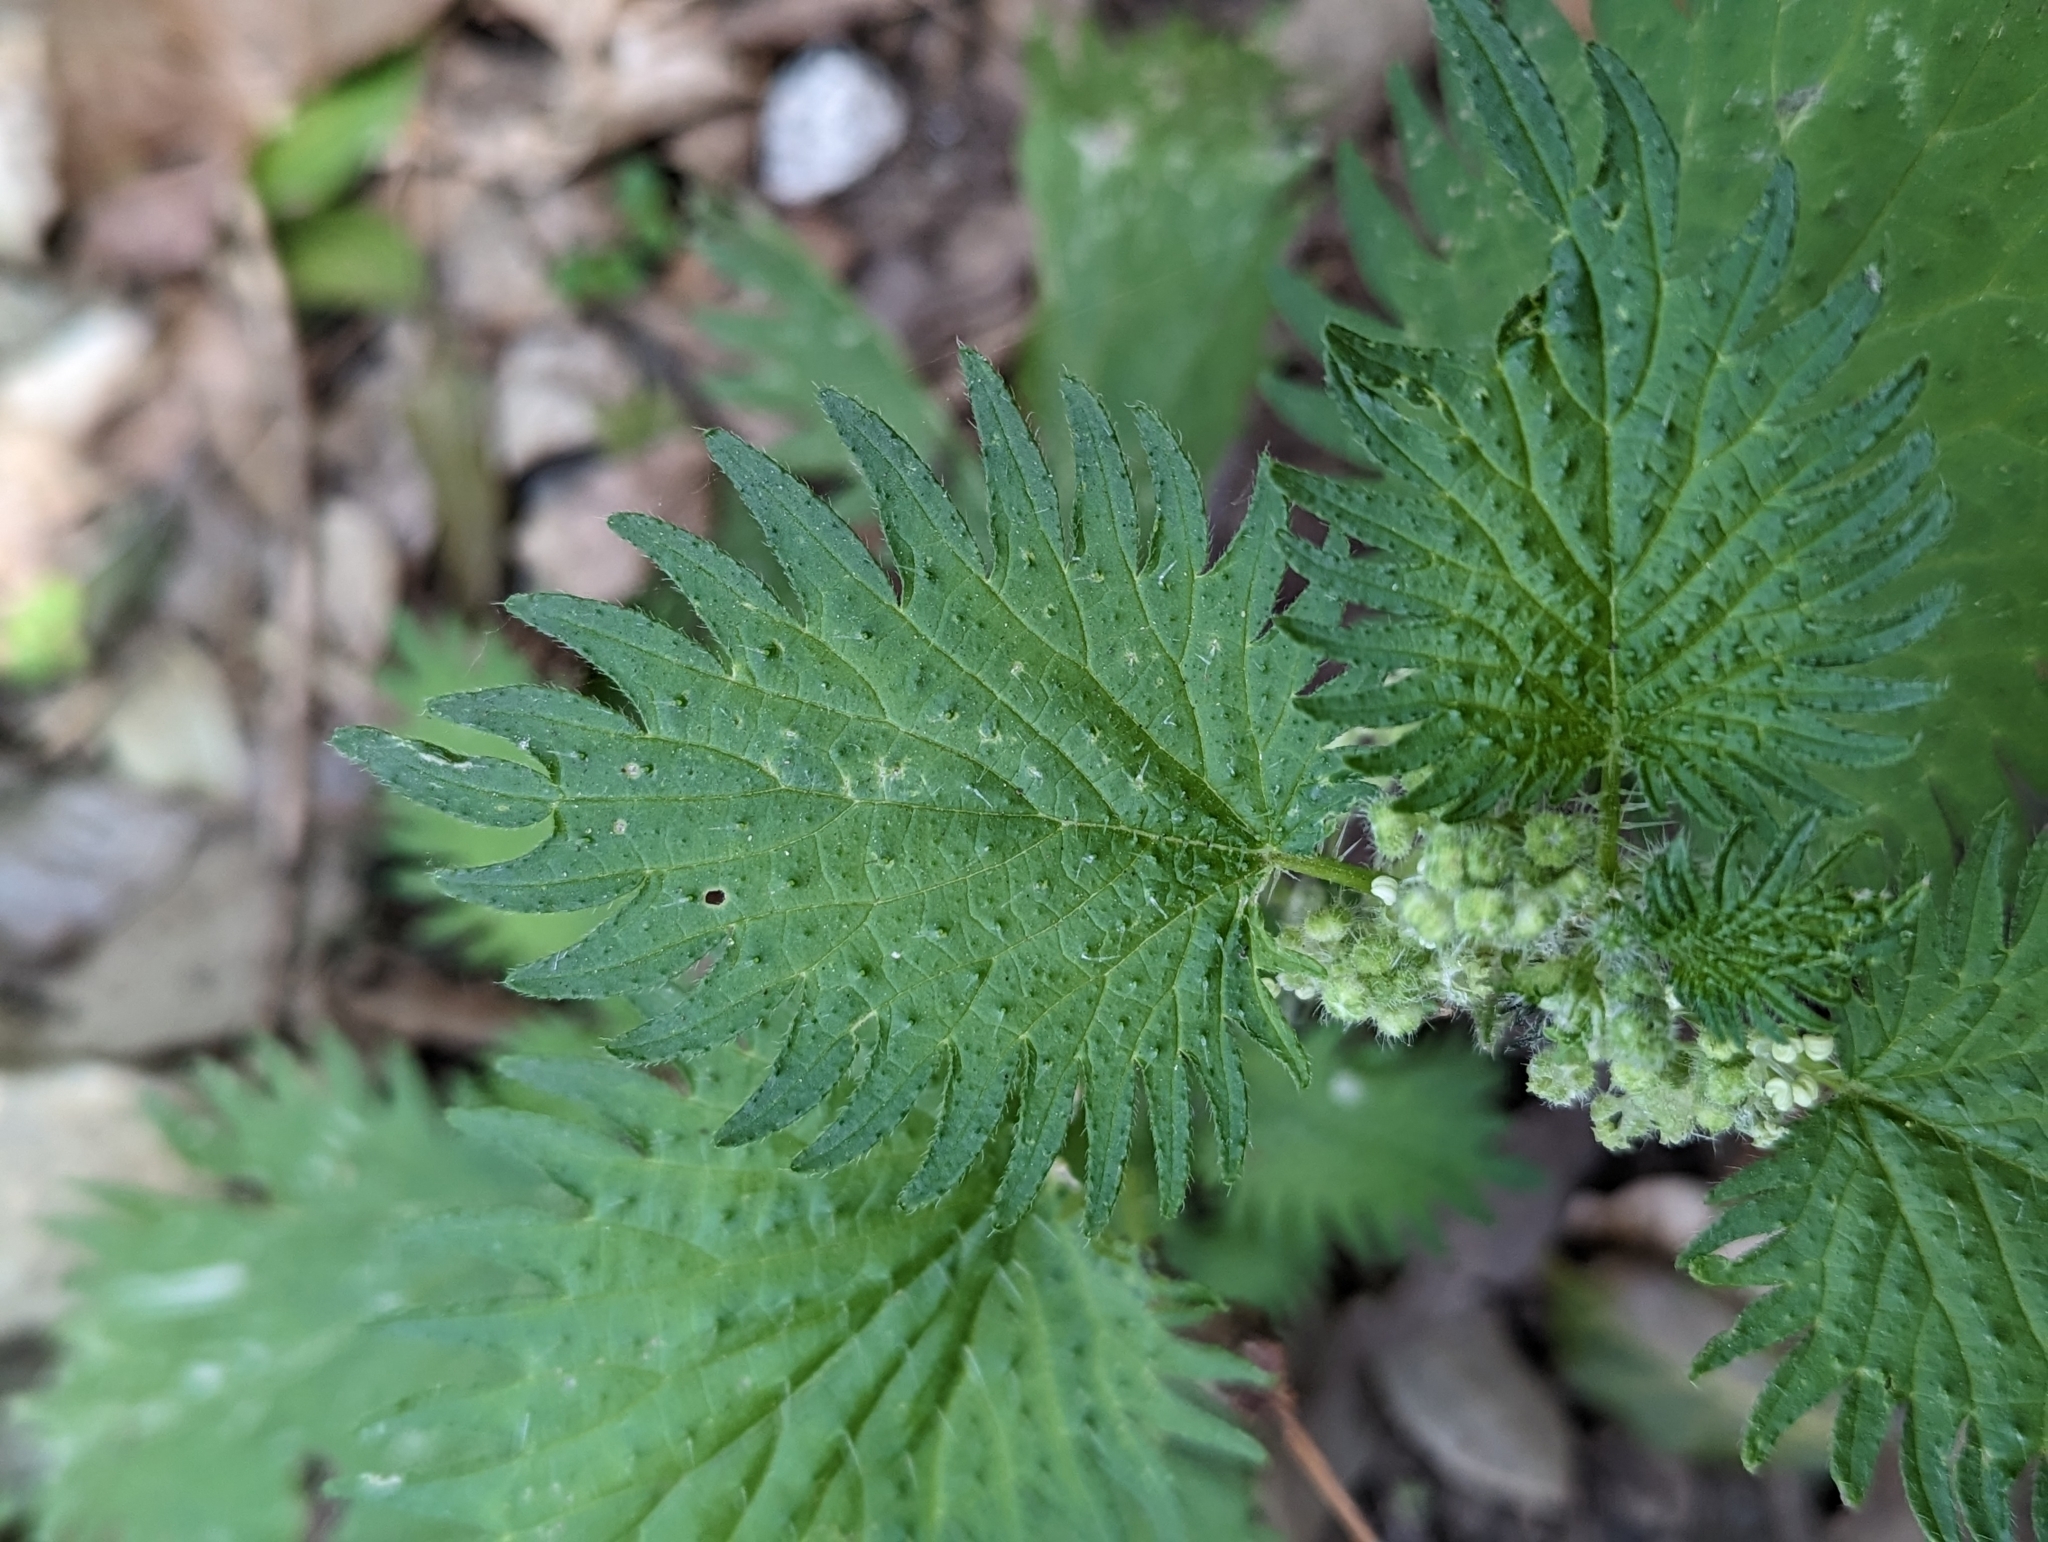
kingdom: Plantae
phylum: Tracheophyta
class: Magnoliopsida
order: Rosales
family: Urticaceae
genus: Urtica
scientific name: Urtica pilulifera
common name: Roman nettle
